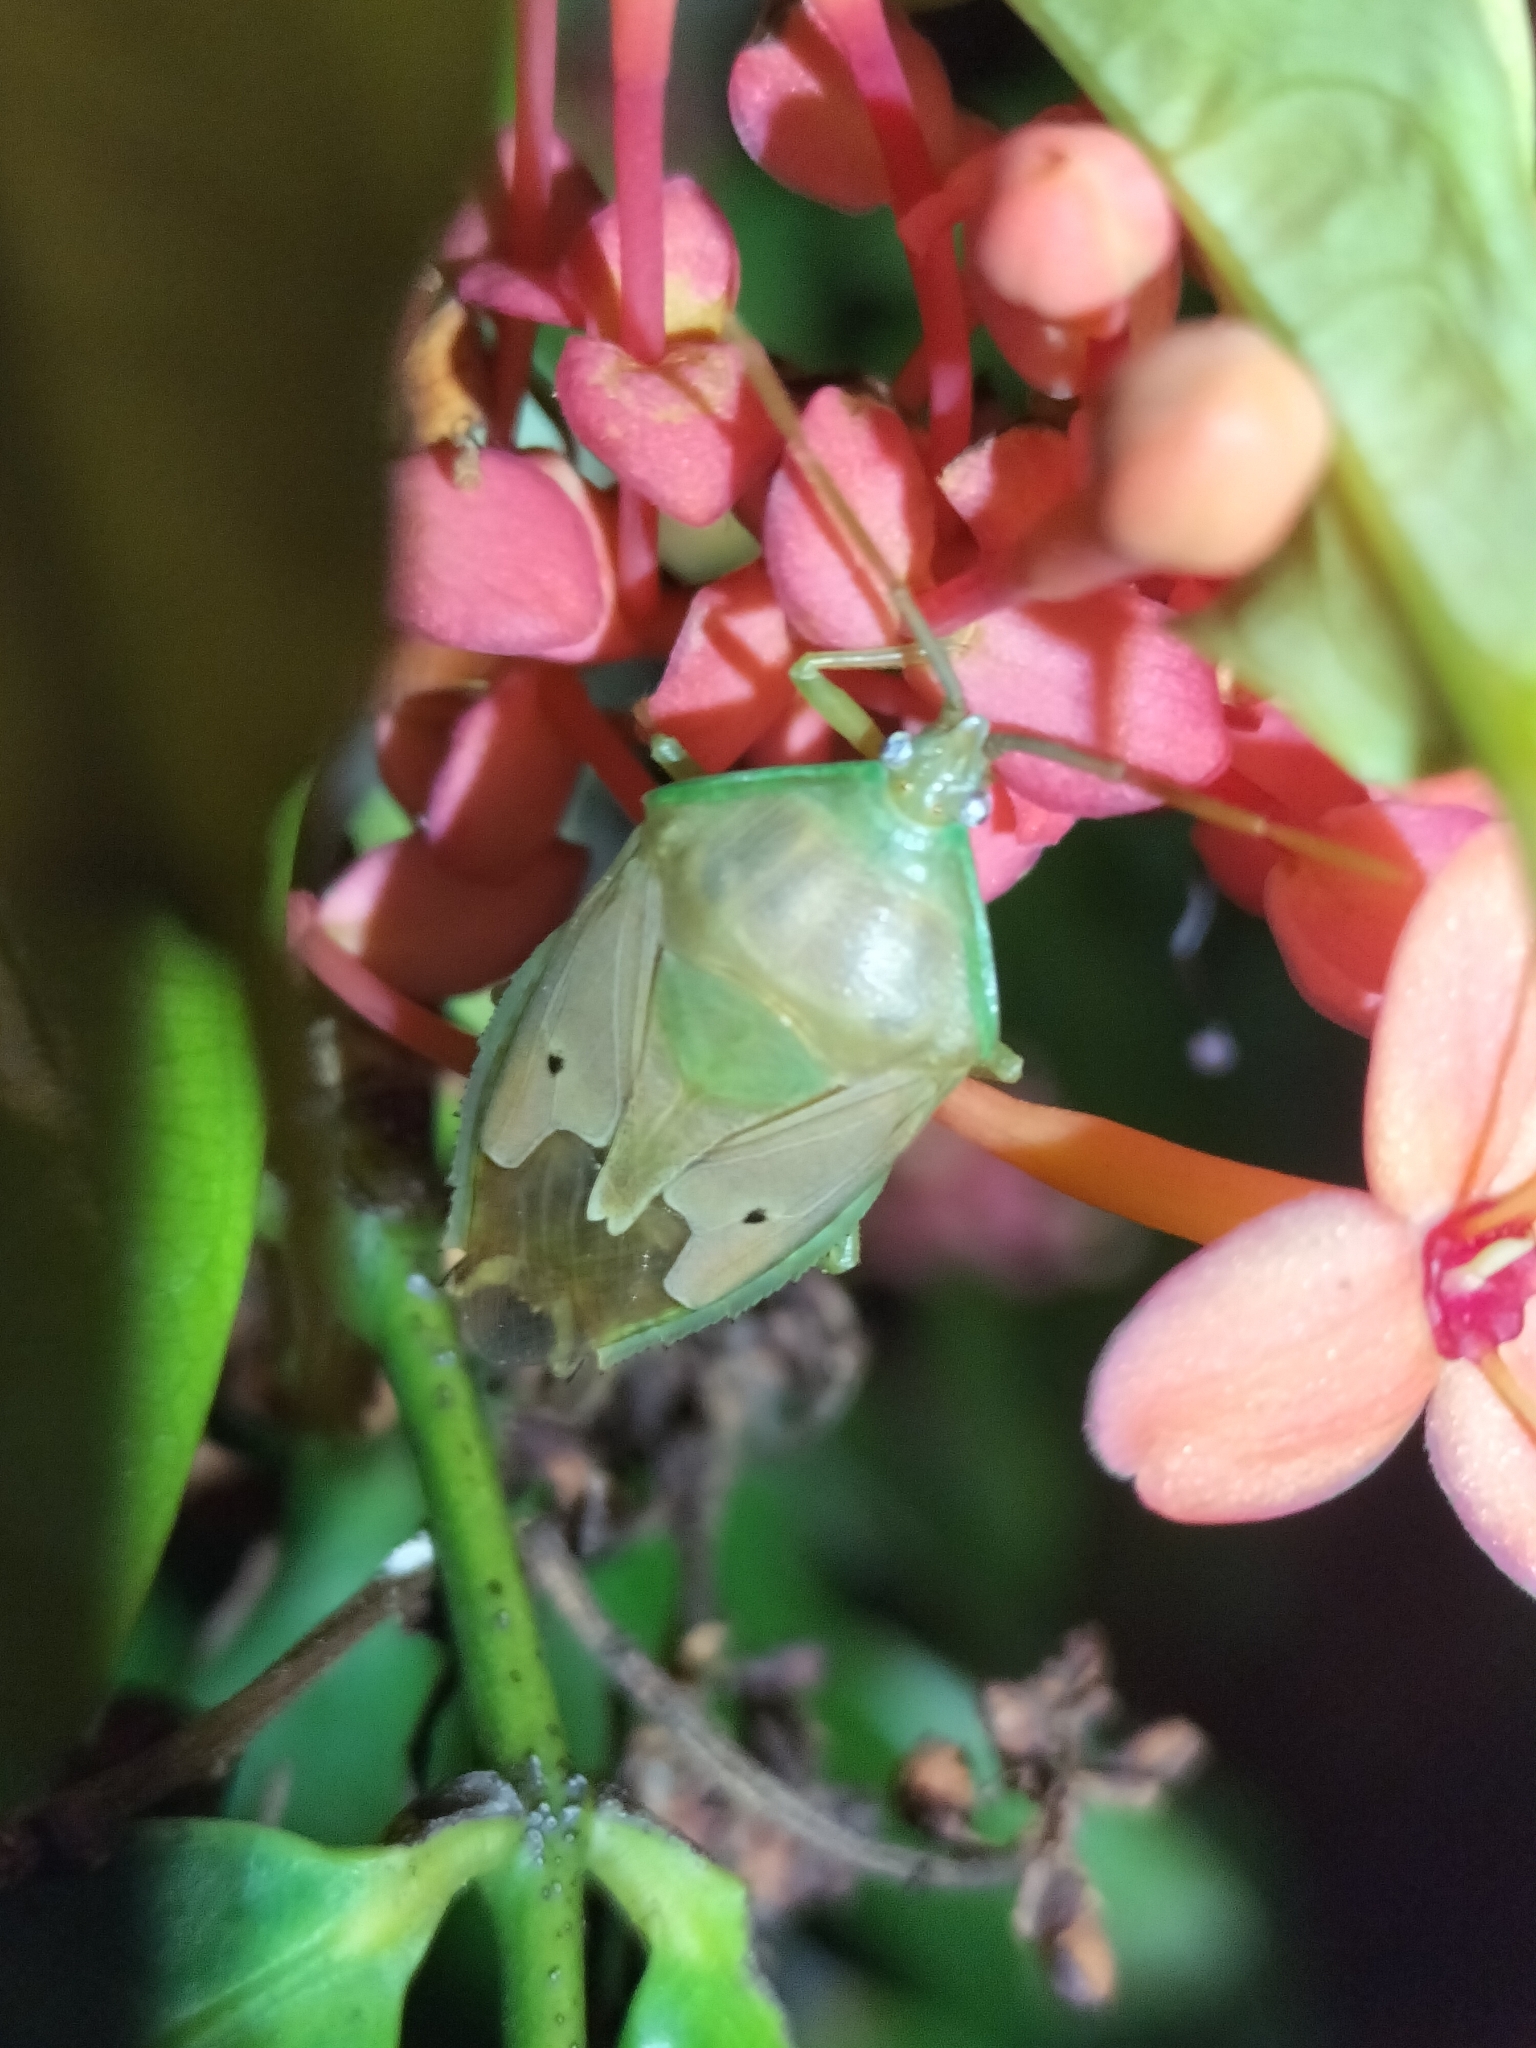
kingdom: Animalia
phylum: Arthropoda
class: Insecta
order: Hemiptera
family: Tessaratomidae
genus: Agapophyta
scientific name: Agapophyta bipunctata
